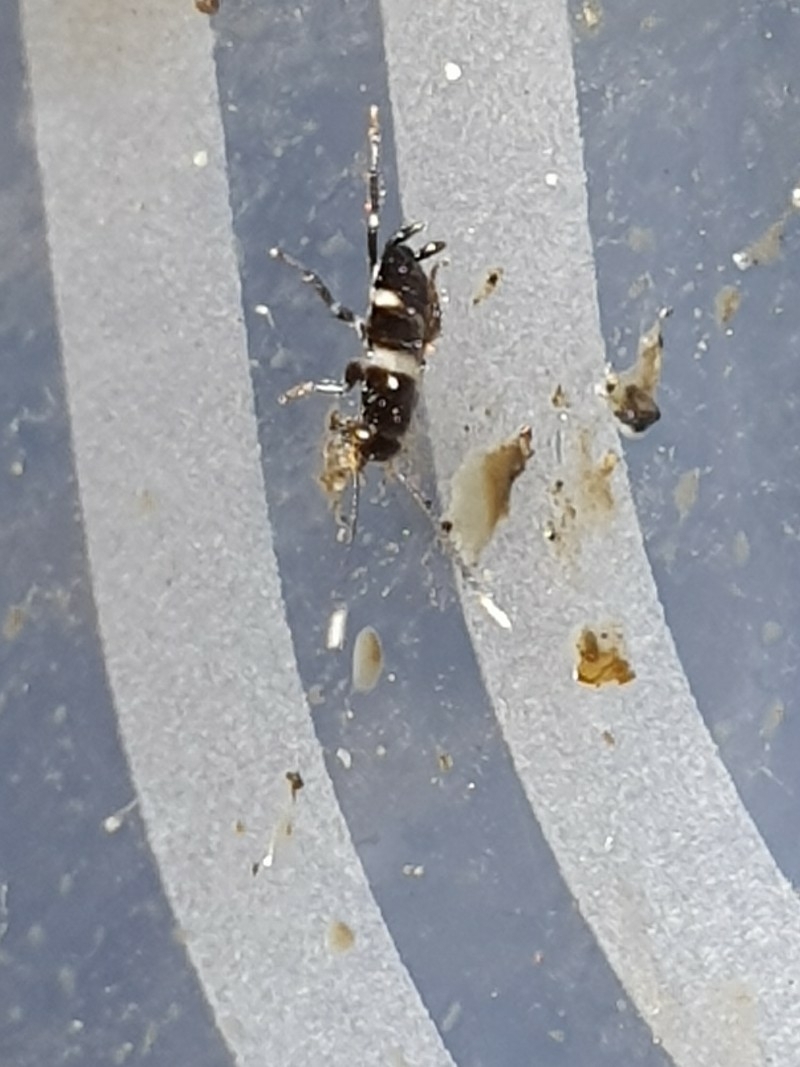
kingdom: Animalia
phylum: Arthropoda
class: Insecta
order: Blattodea
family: Blattidae
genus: Periplaneta
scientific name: Periplaneta australasiae
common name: Australian cockroach
